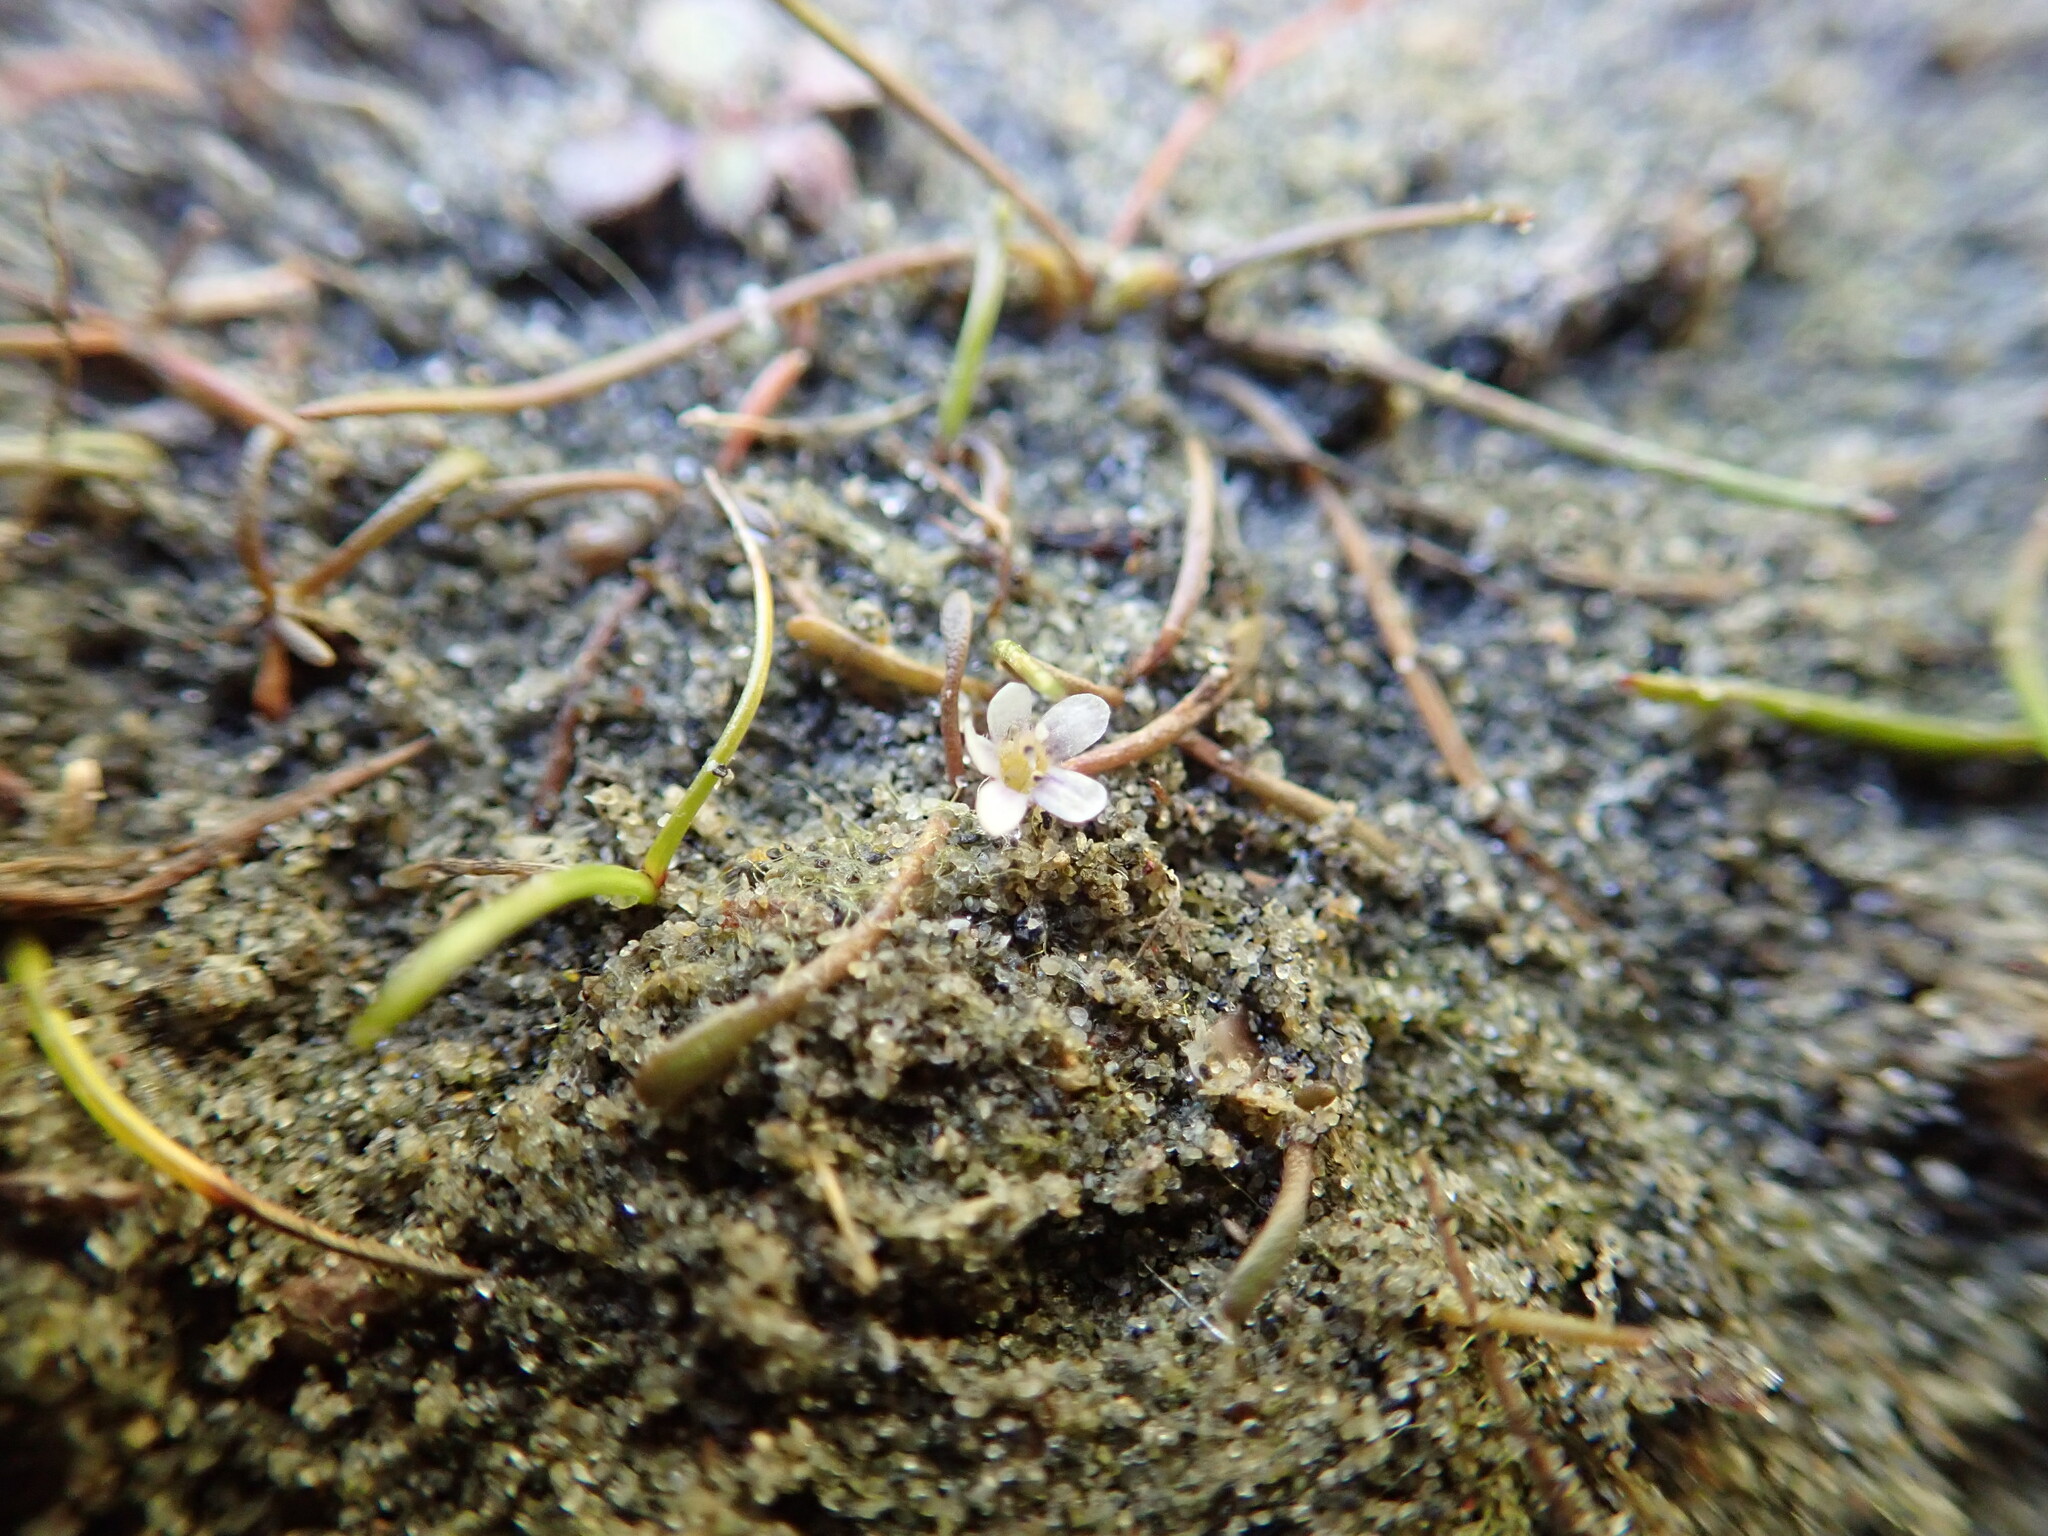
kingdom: Plantae
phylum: Tracheophyta
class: Magnoliopsida
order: Lamiales
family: Scrophulariaceae
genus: Limosella
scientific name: Limosella australis
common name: Welsh mudwort
